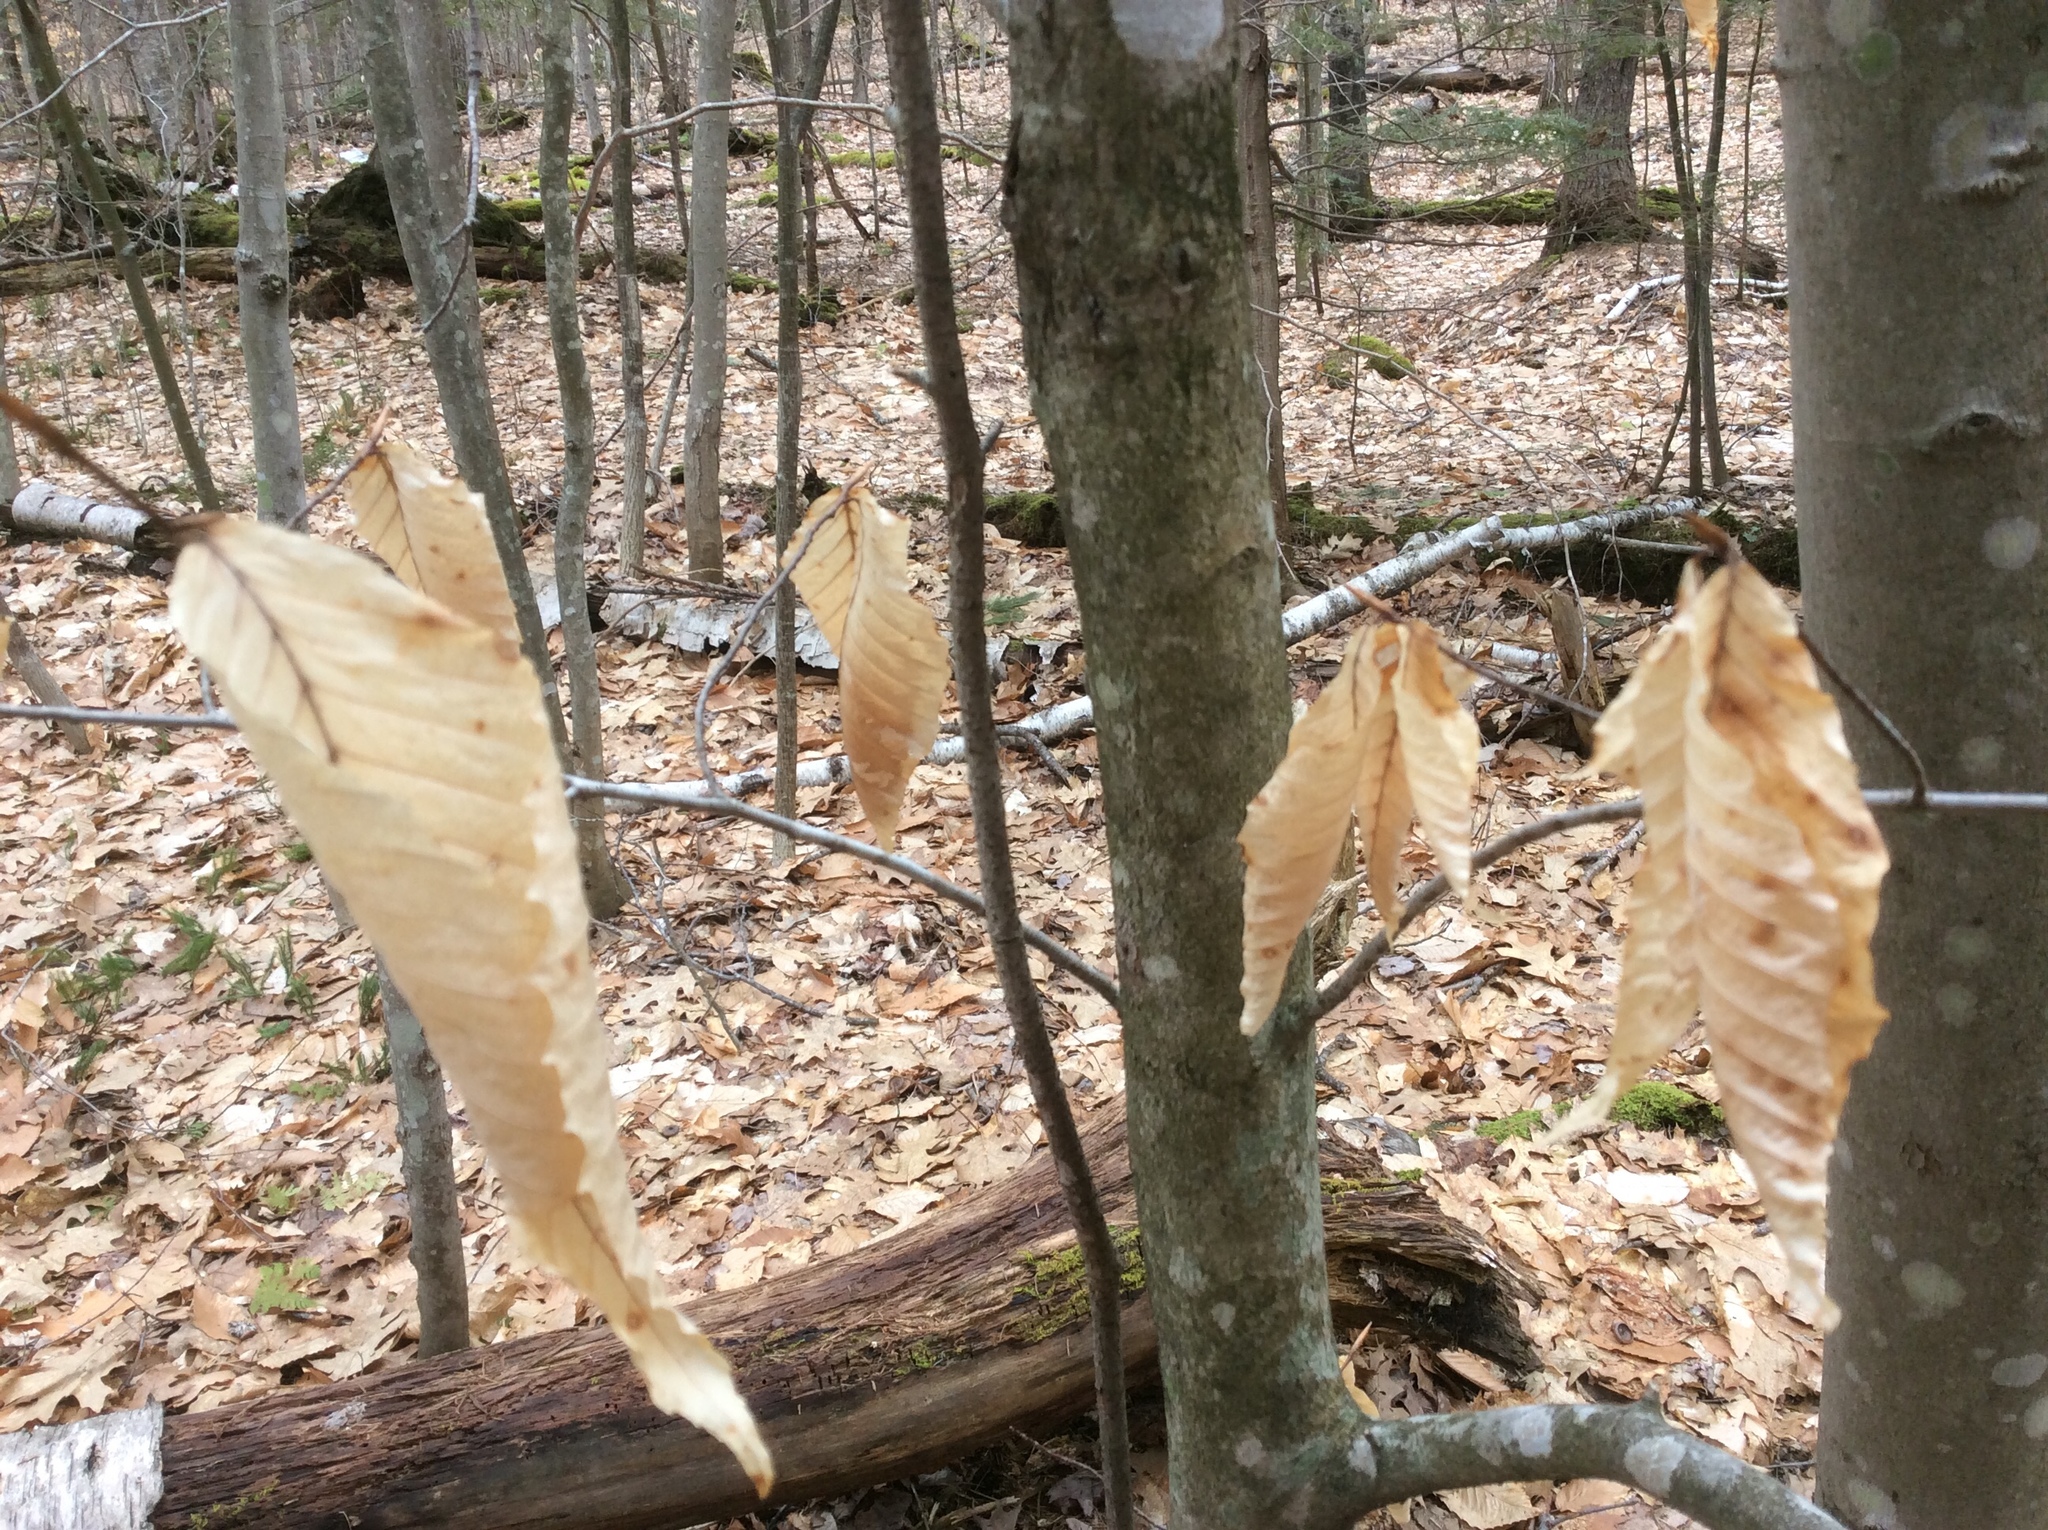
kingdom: Plantae
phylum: Tracheophyta
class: Magnoliopsida
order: Fagales
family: Fagaceae
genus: Fagus
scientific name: Fagus grandifolia
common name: American beech
